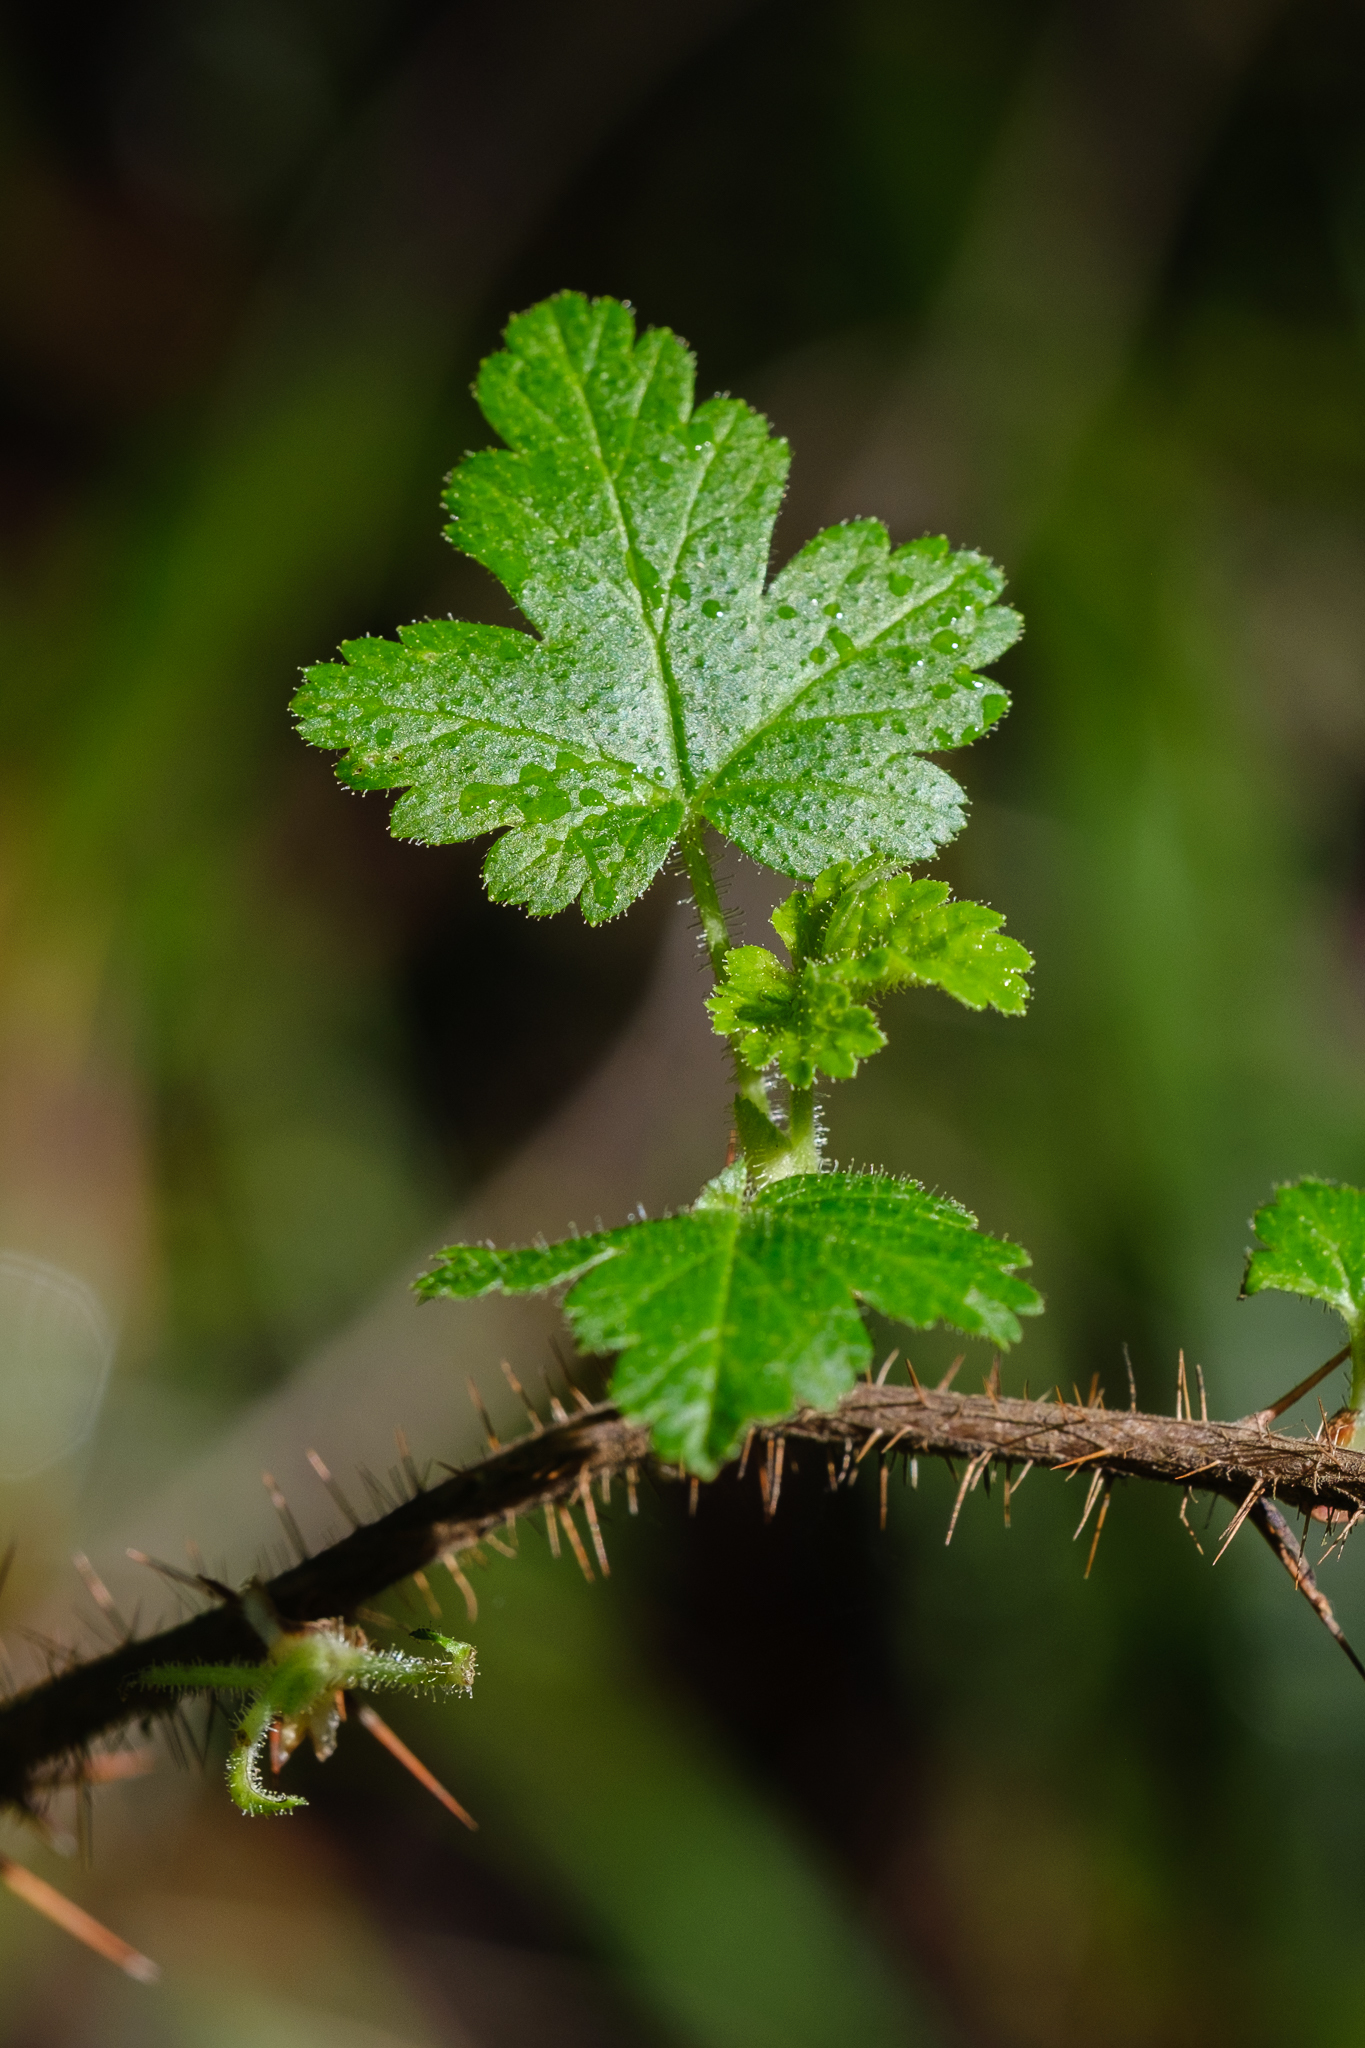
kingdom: Plantae
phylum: Tracheophyta
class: Magnoliopsida
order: Saxifragales
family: Grossulariaceae
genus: Ribes
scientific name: Ribes menziesii
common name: Canyon gooseberry
